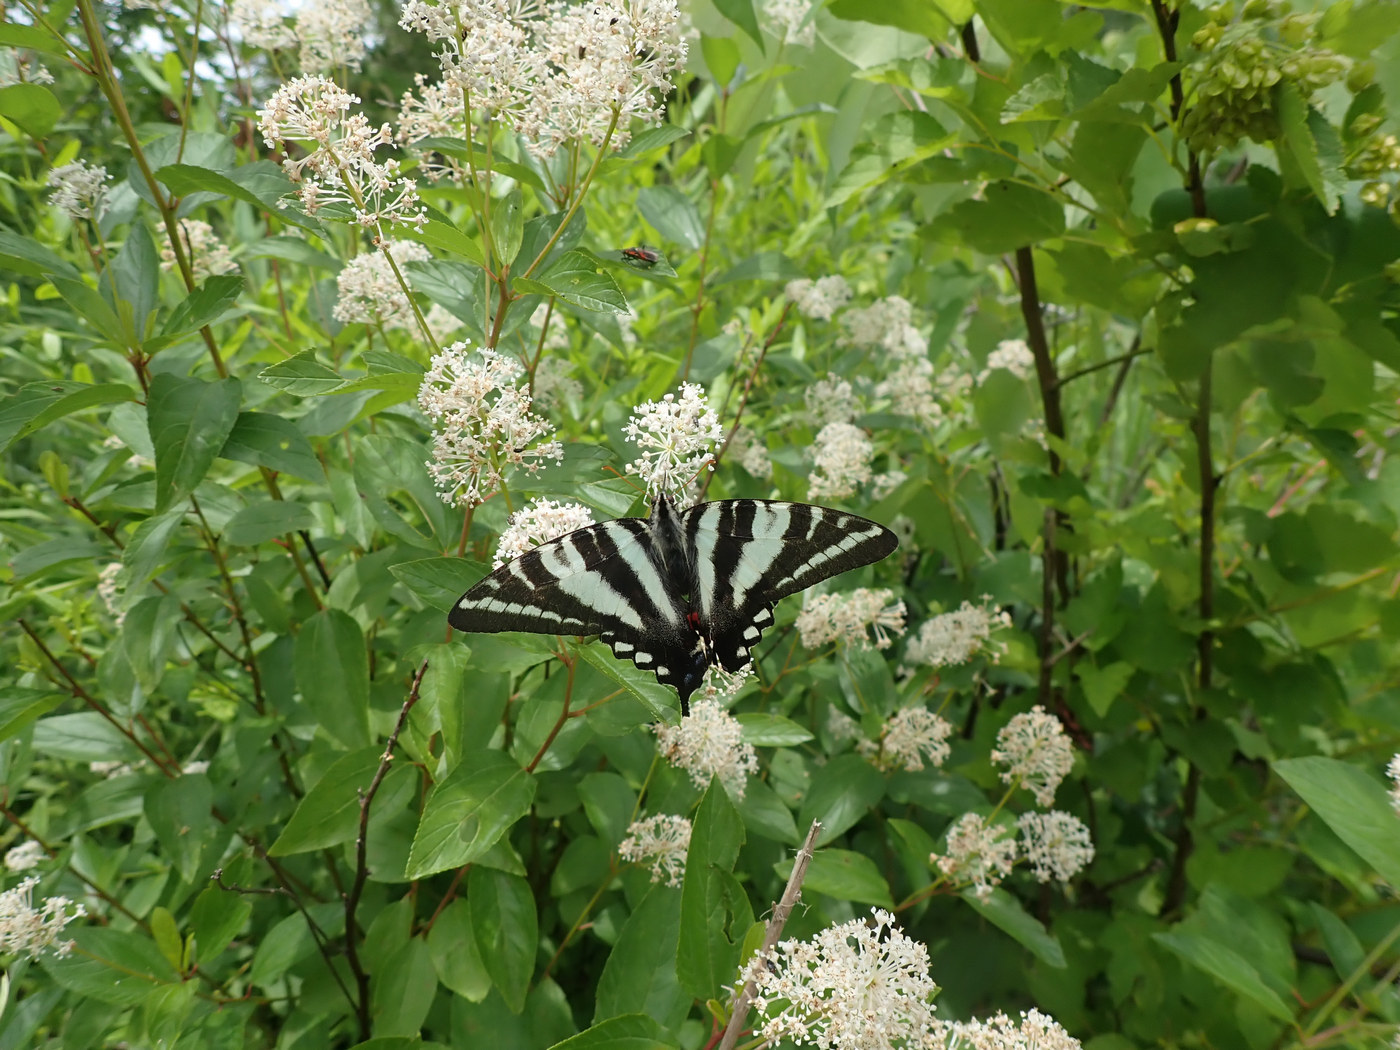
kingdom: Animalia
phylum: Arthropoda
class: Insecta
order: Lepidoptera
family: Papilionidae
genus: Protographium
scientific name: Protographium marcellus
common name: Zebra swallowtail
